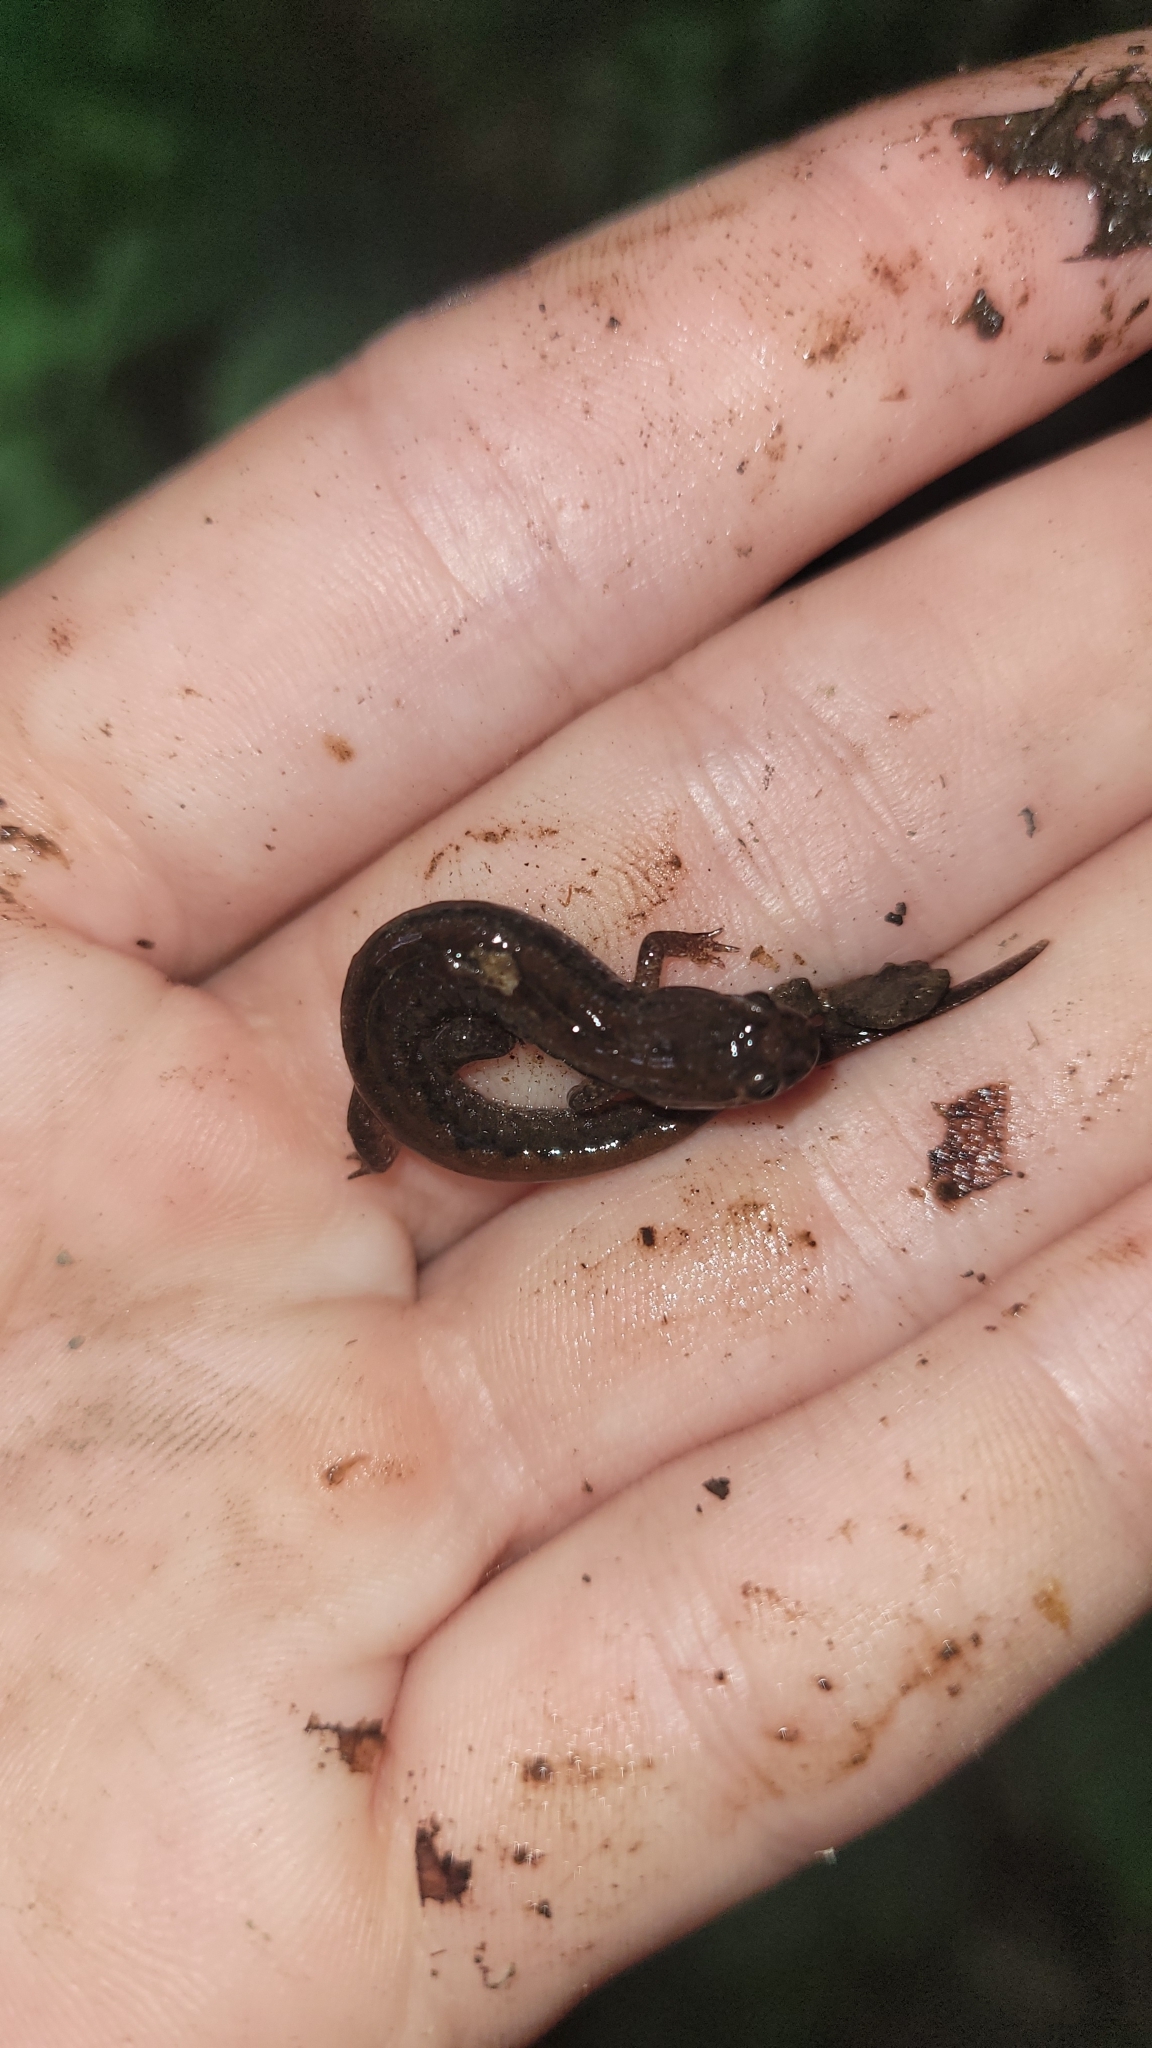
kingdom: Animalia
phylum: Chordata
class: Amphibia
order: Caudata
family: Plethodontidae
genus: Desmognathus
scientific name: Desmognathus fuscus
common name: Northern dusky salamander
